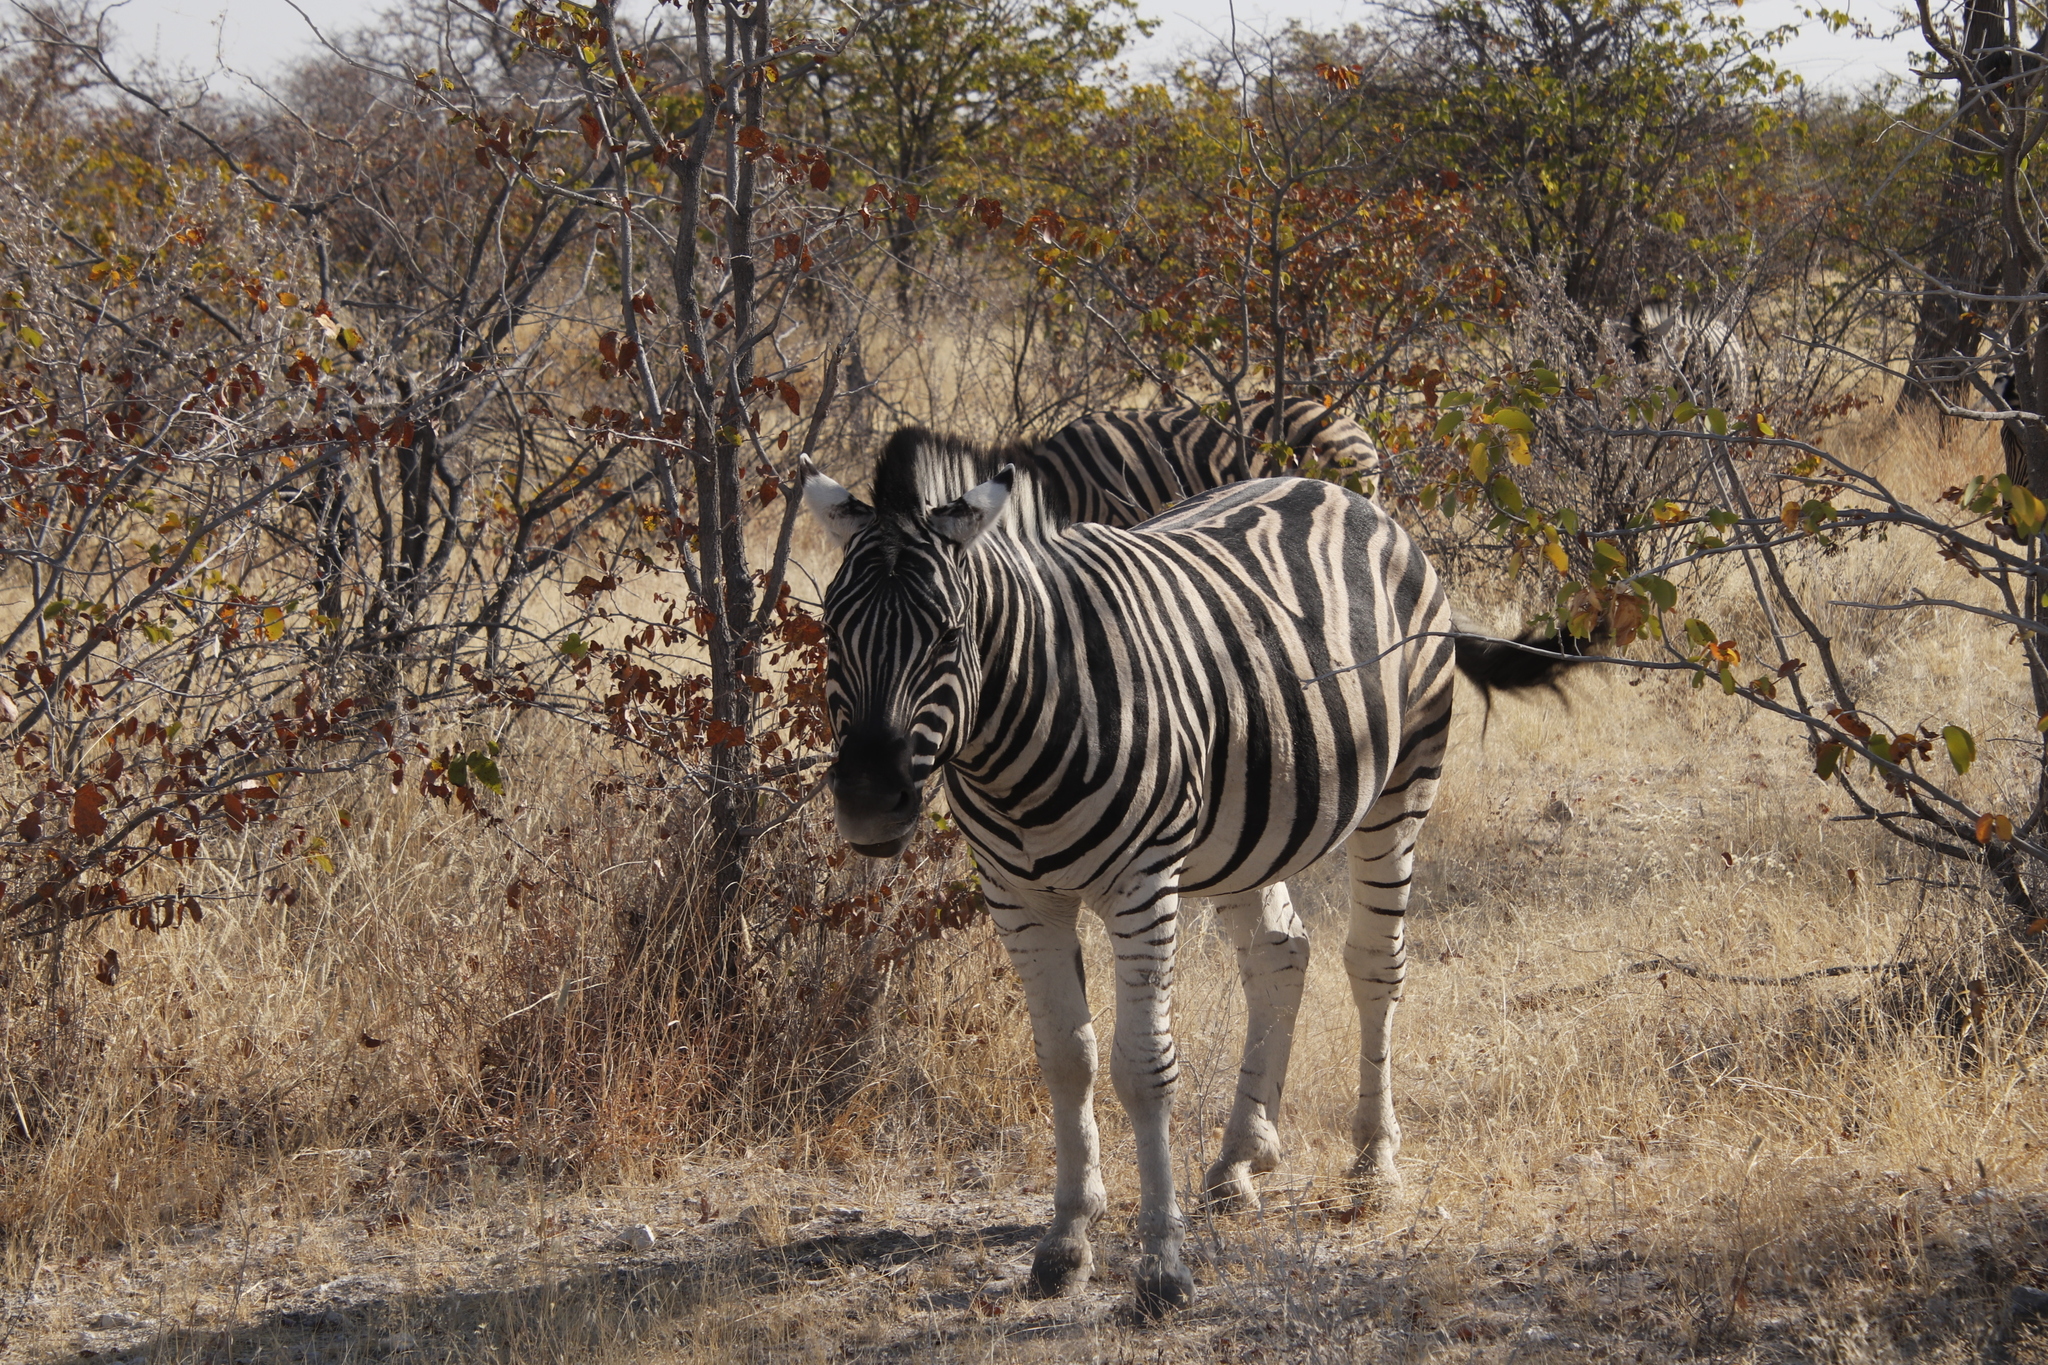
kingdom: Animalia
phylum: Chordata
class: Mammalia
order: Perissodactyla
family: Equidae
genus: Equus
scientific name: Equus quagga
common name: Plains zebra
